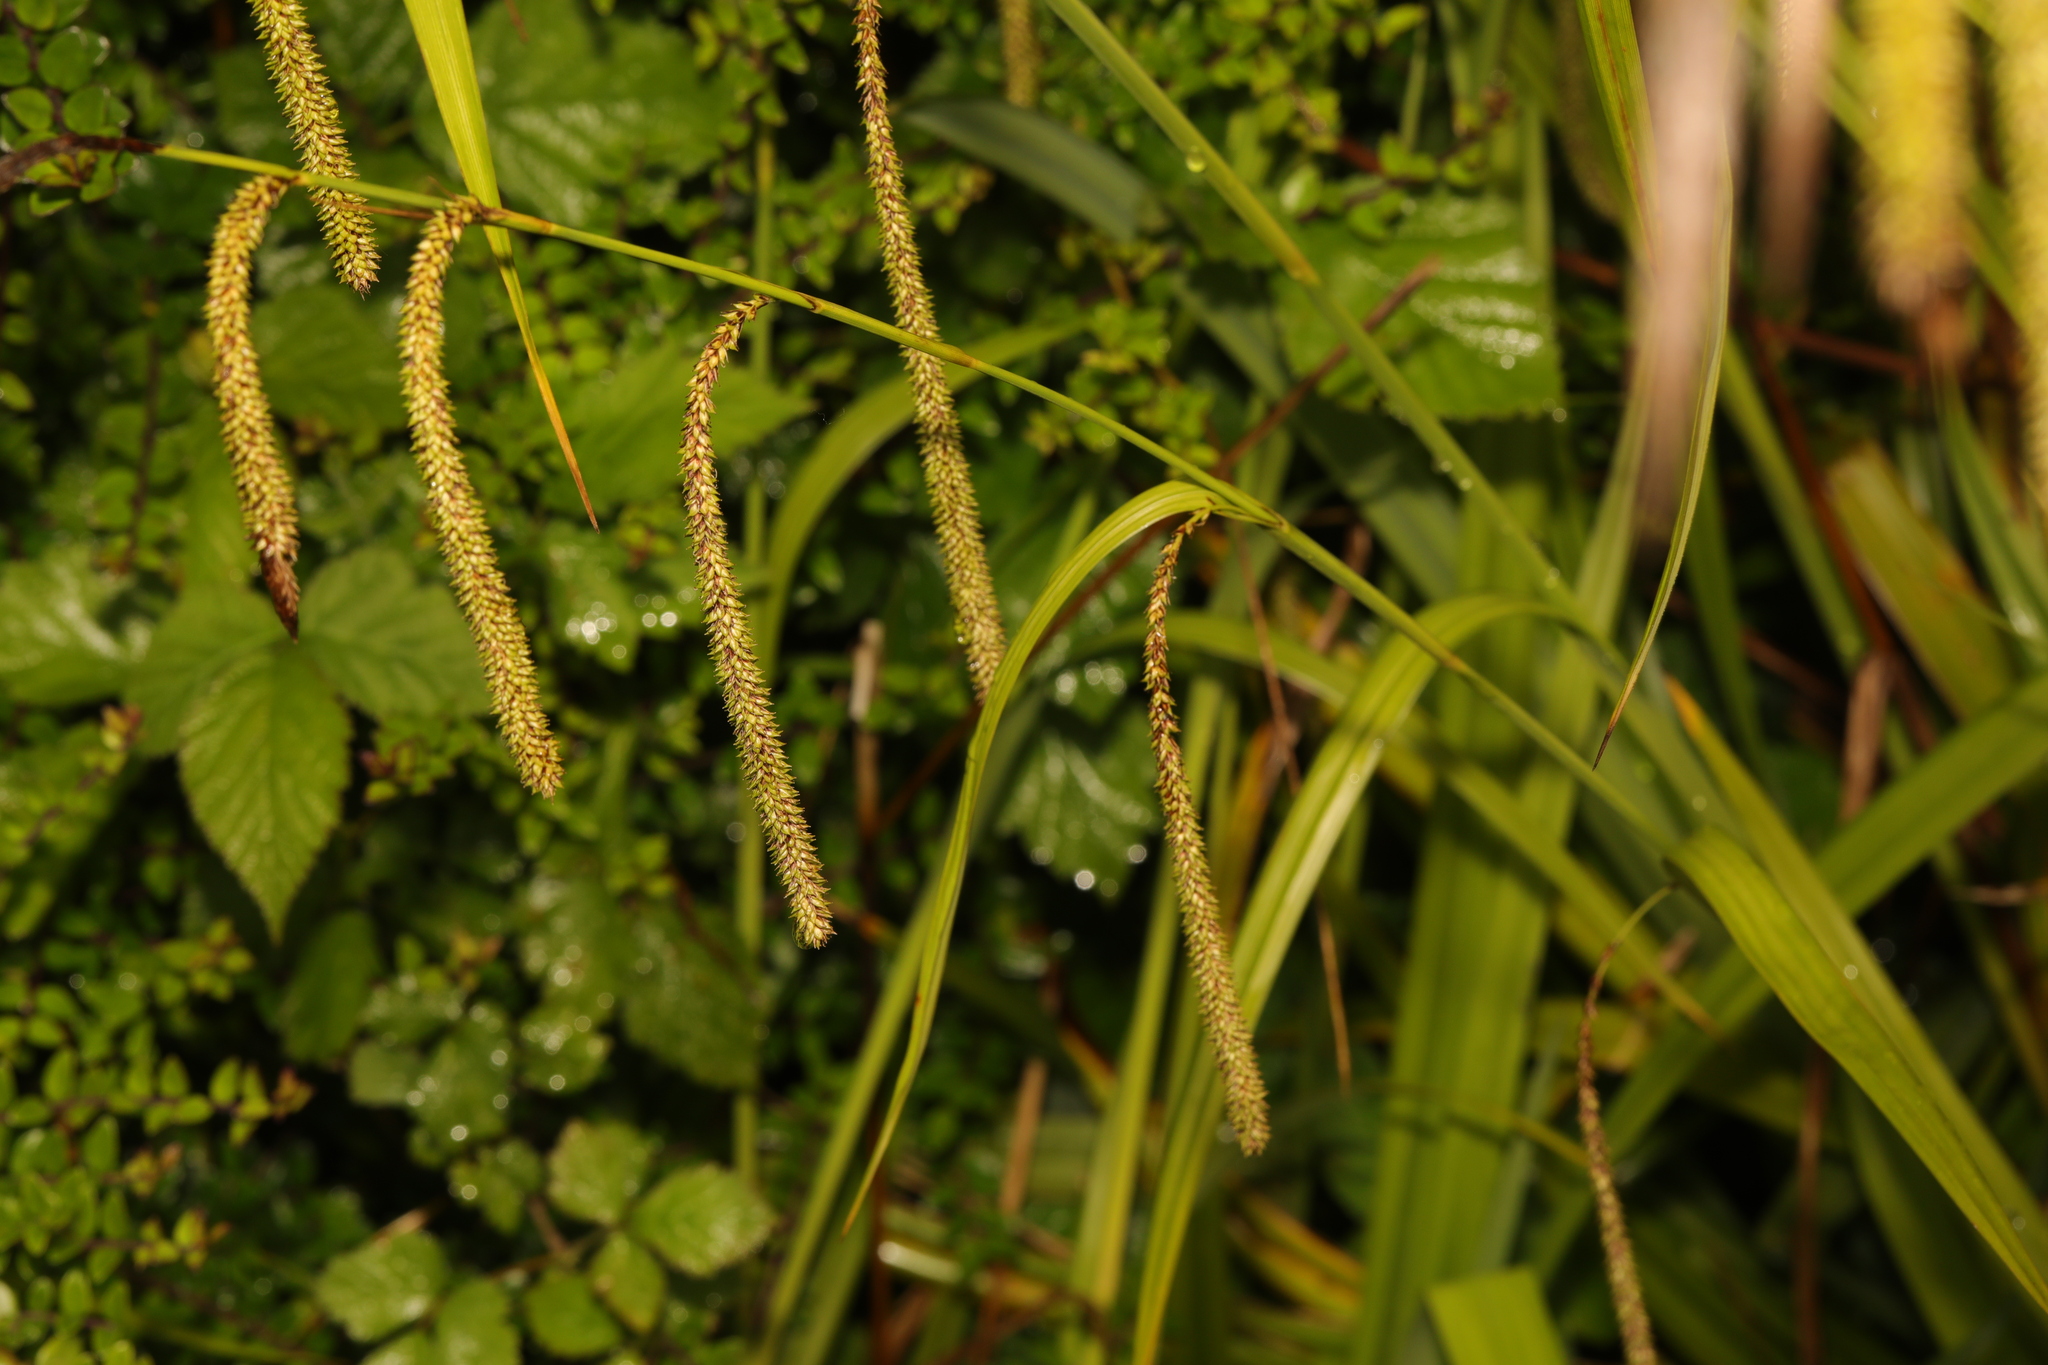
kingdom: Plantae
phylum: Tracheophyta
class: Liliopsida
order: Poales
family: Cyperaceae
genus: Carex
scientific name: Carex pendula
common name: Pendulous sedge
